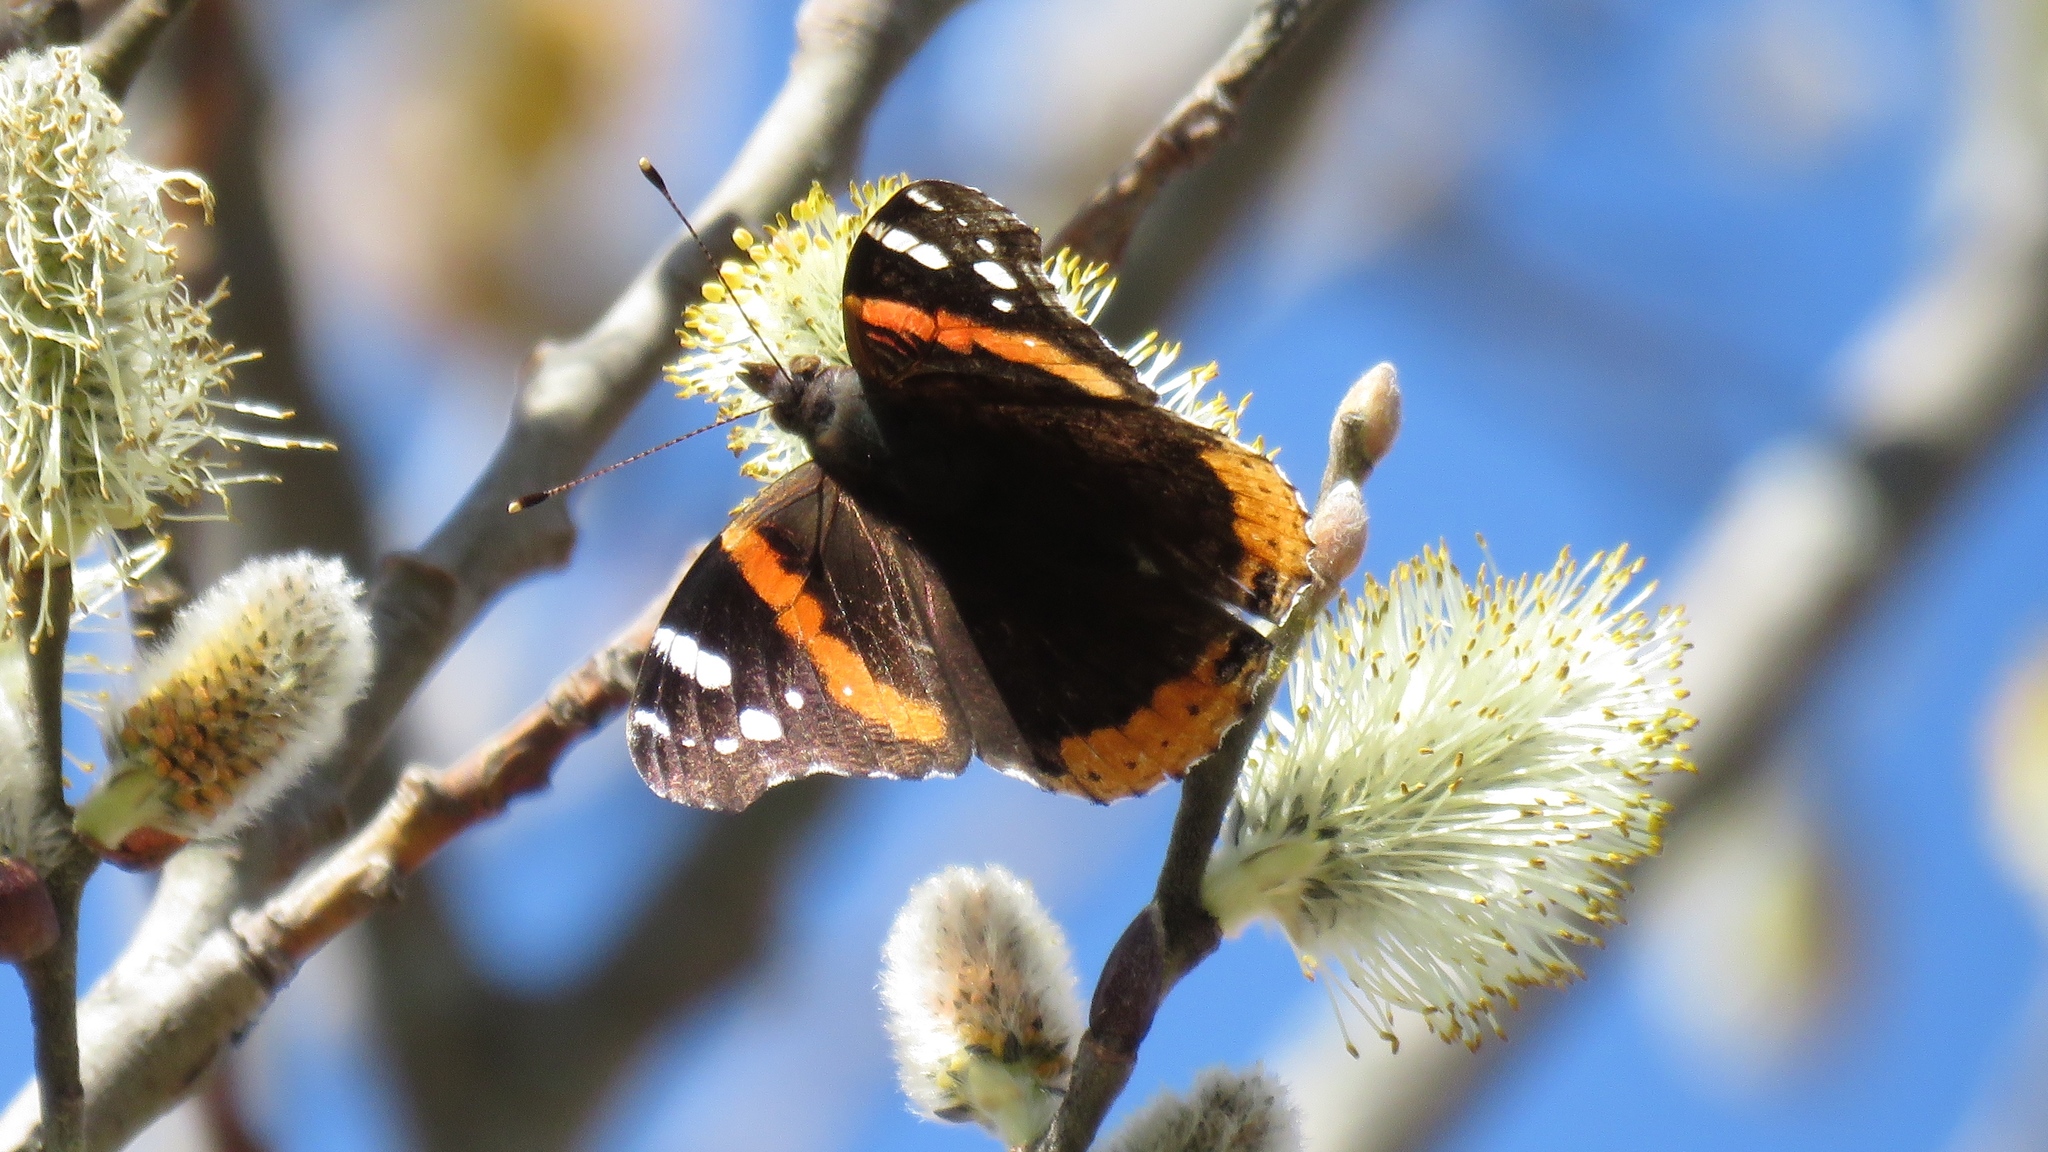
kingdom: Animalia
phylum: Arthropoda
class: Insecta
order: Lepidoptera
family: Nymphalidae
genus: Vanessa
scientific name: Vanessa atalanta
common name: Red admiral
